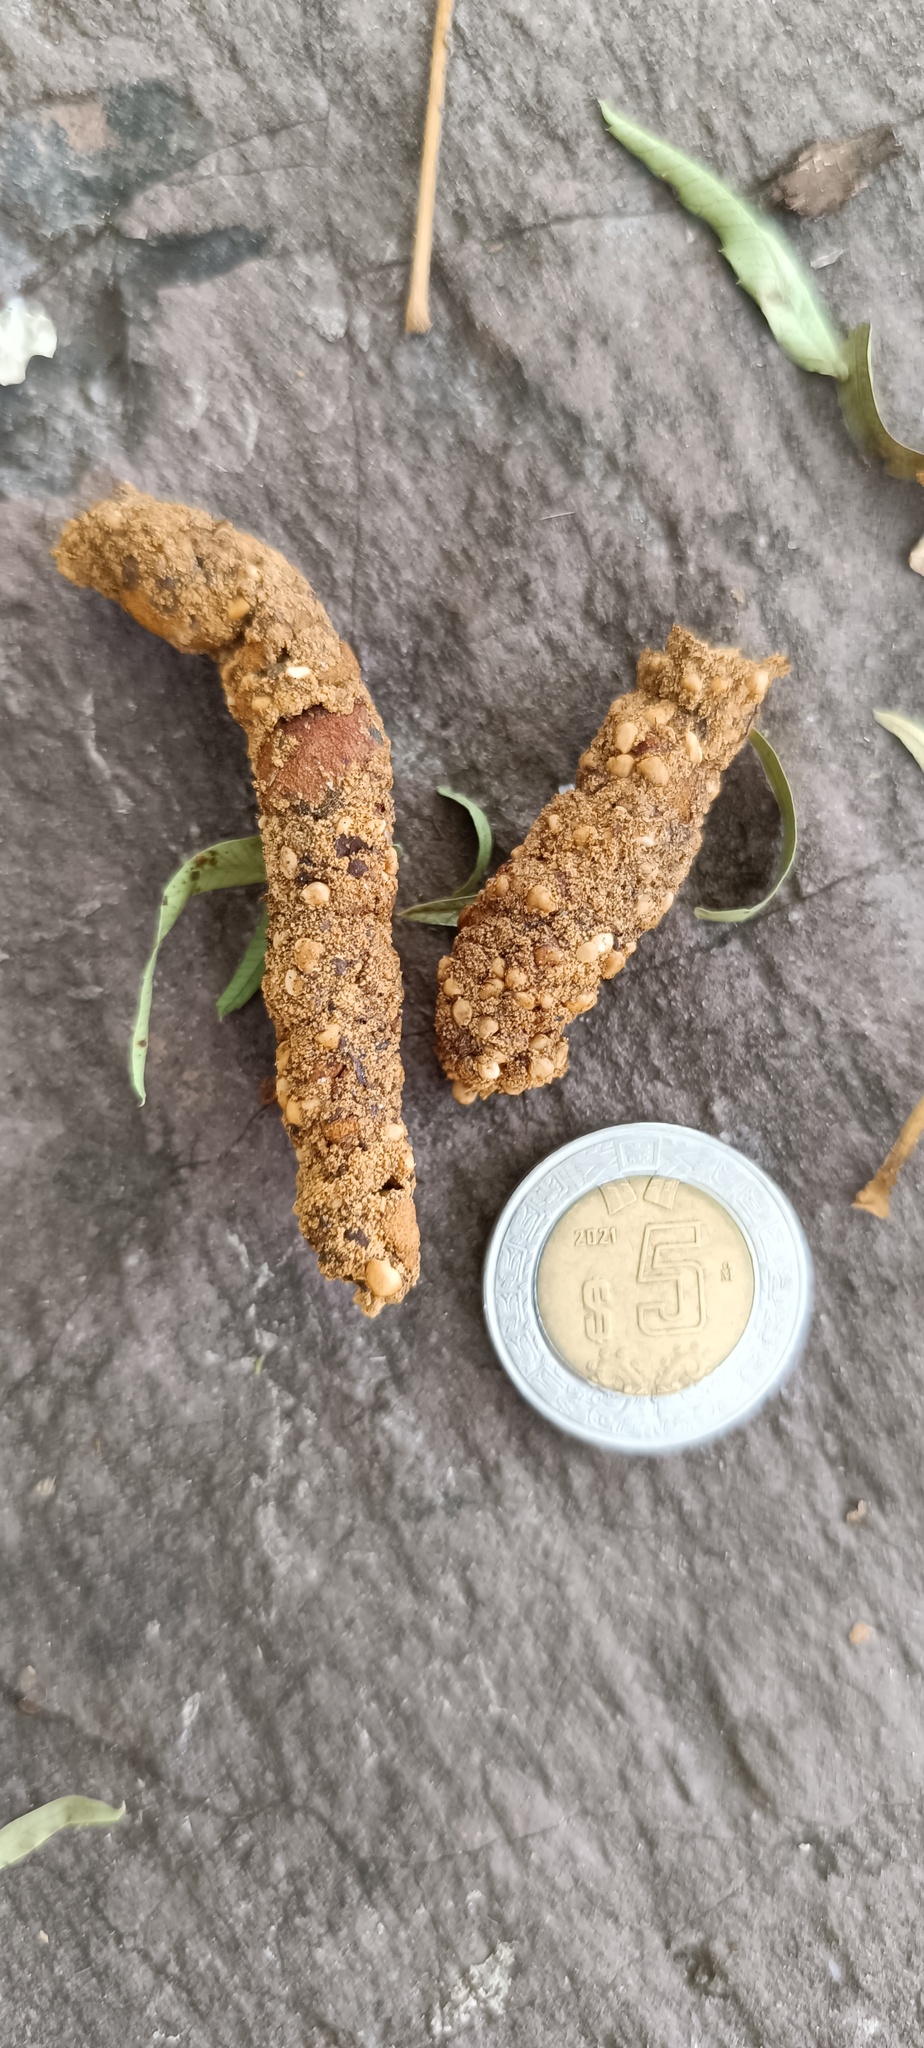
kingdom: Animalia
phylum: Chordata
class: Mammalia
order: Carnivora
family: Procyonidae
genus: Bassariscus
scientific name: Bassariscus astutus
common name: Ringtail
